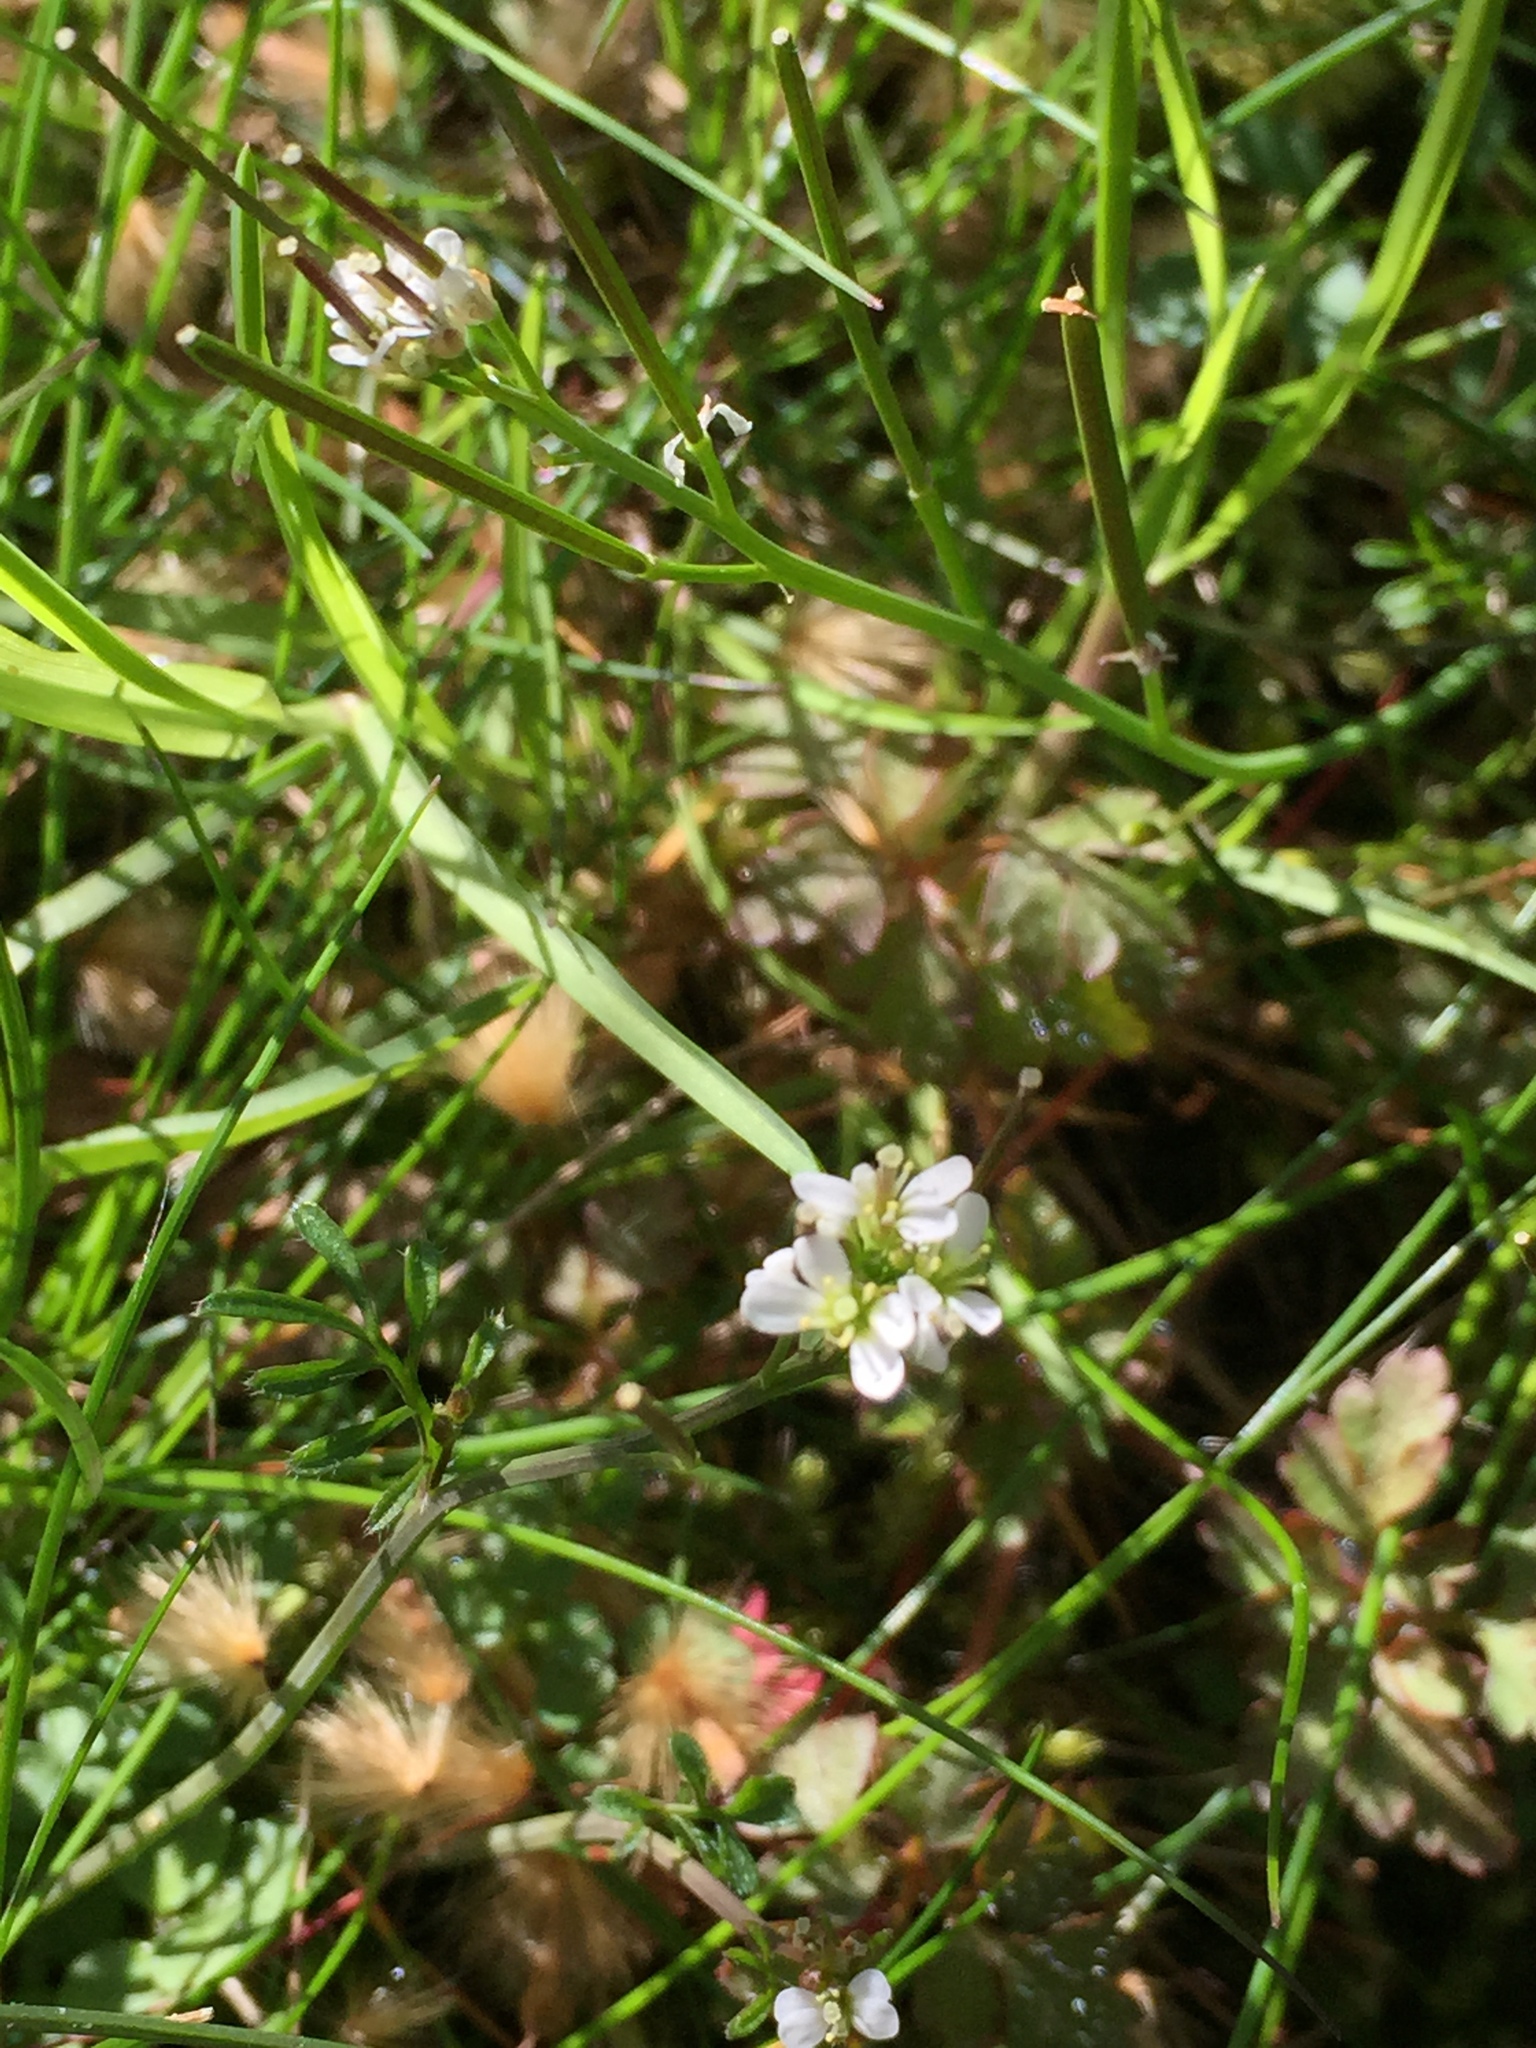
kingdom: Plantae
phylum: Tracheophyta
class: Magnoliopsida
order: Brassicales
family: Brassicaceae
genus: Cardamine
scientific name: Cardamine hirsuta
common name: Hairy bittercress
